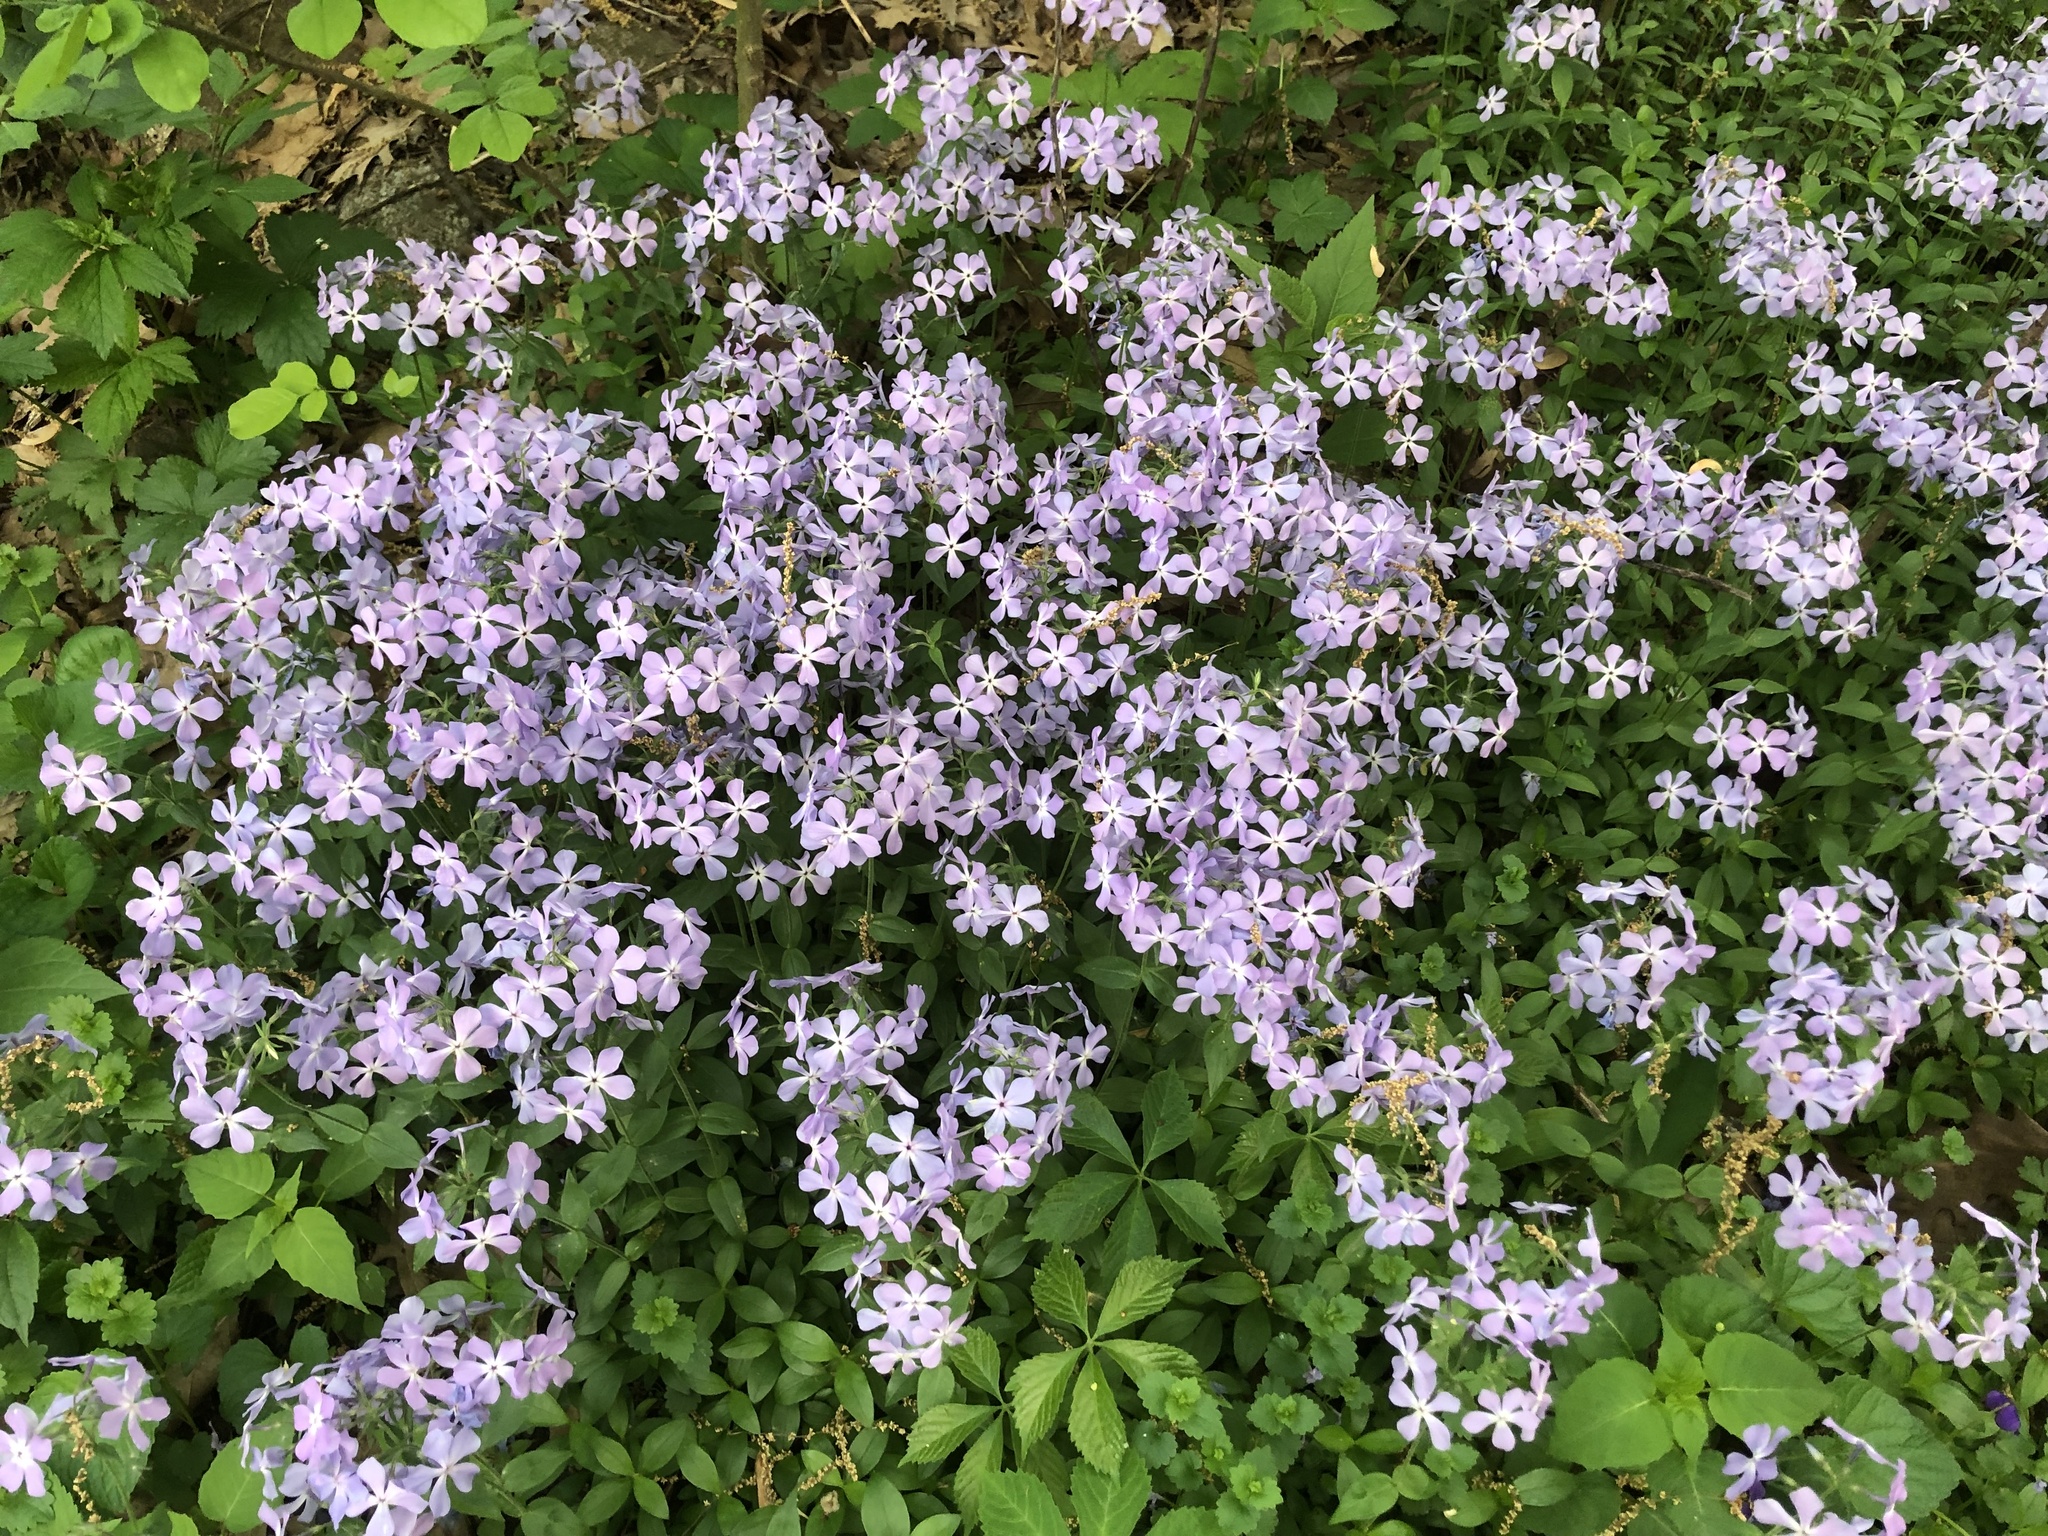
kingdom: Plantae
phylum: Tracheophyta
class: Magnoliopsida
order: Ericales
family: Polemoniaceae
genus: Phlox
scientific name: Phlox divaricata
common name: Blue phlox
